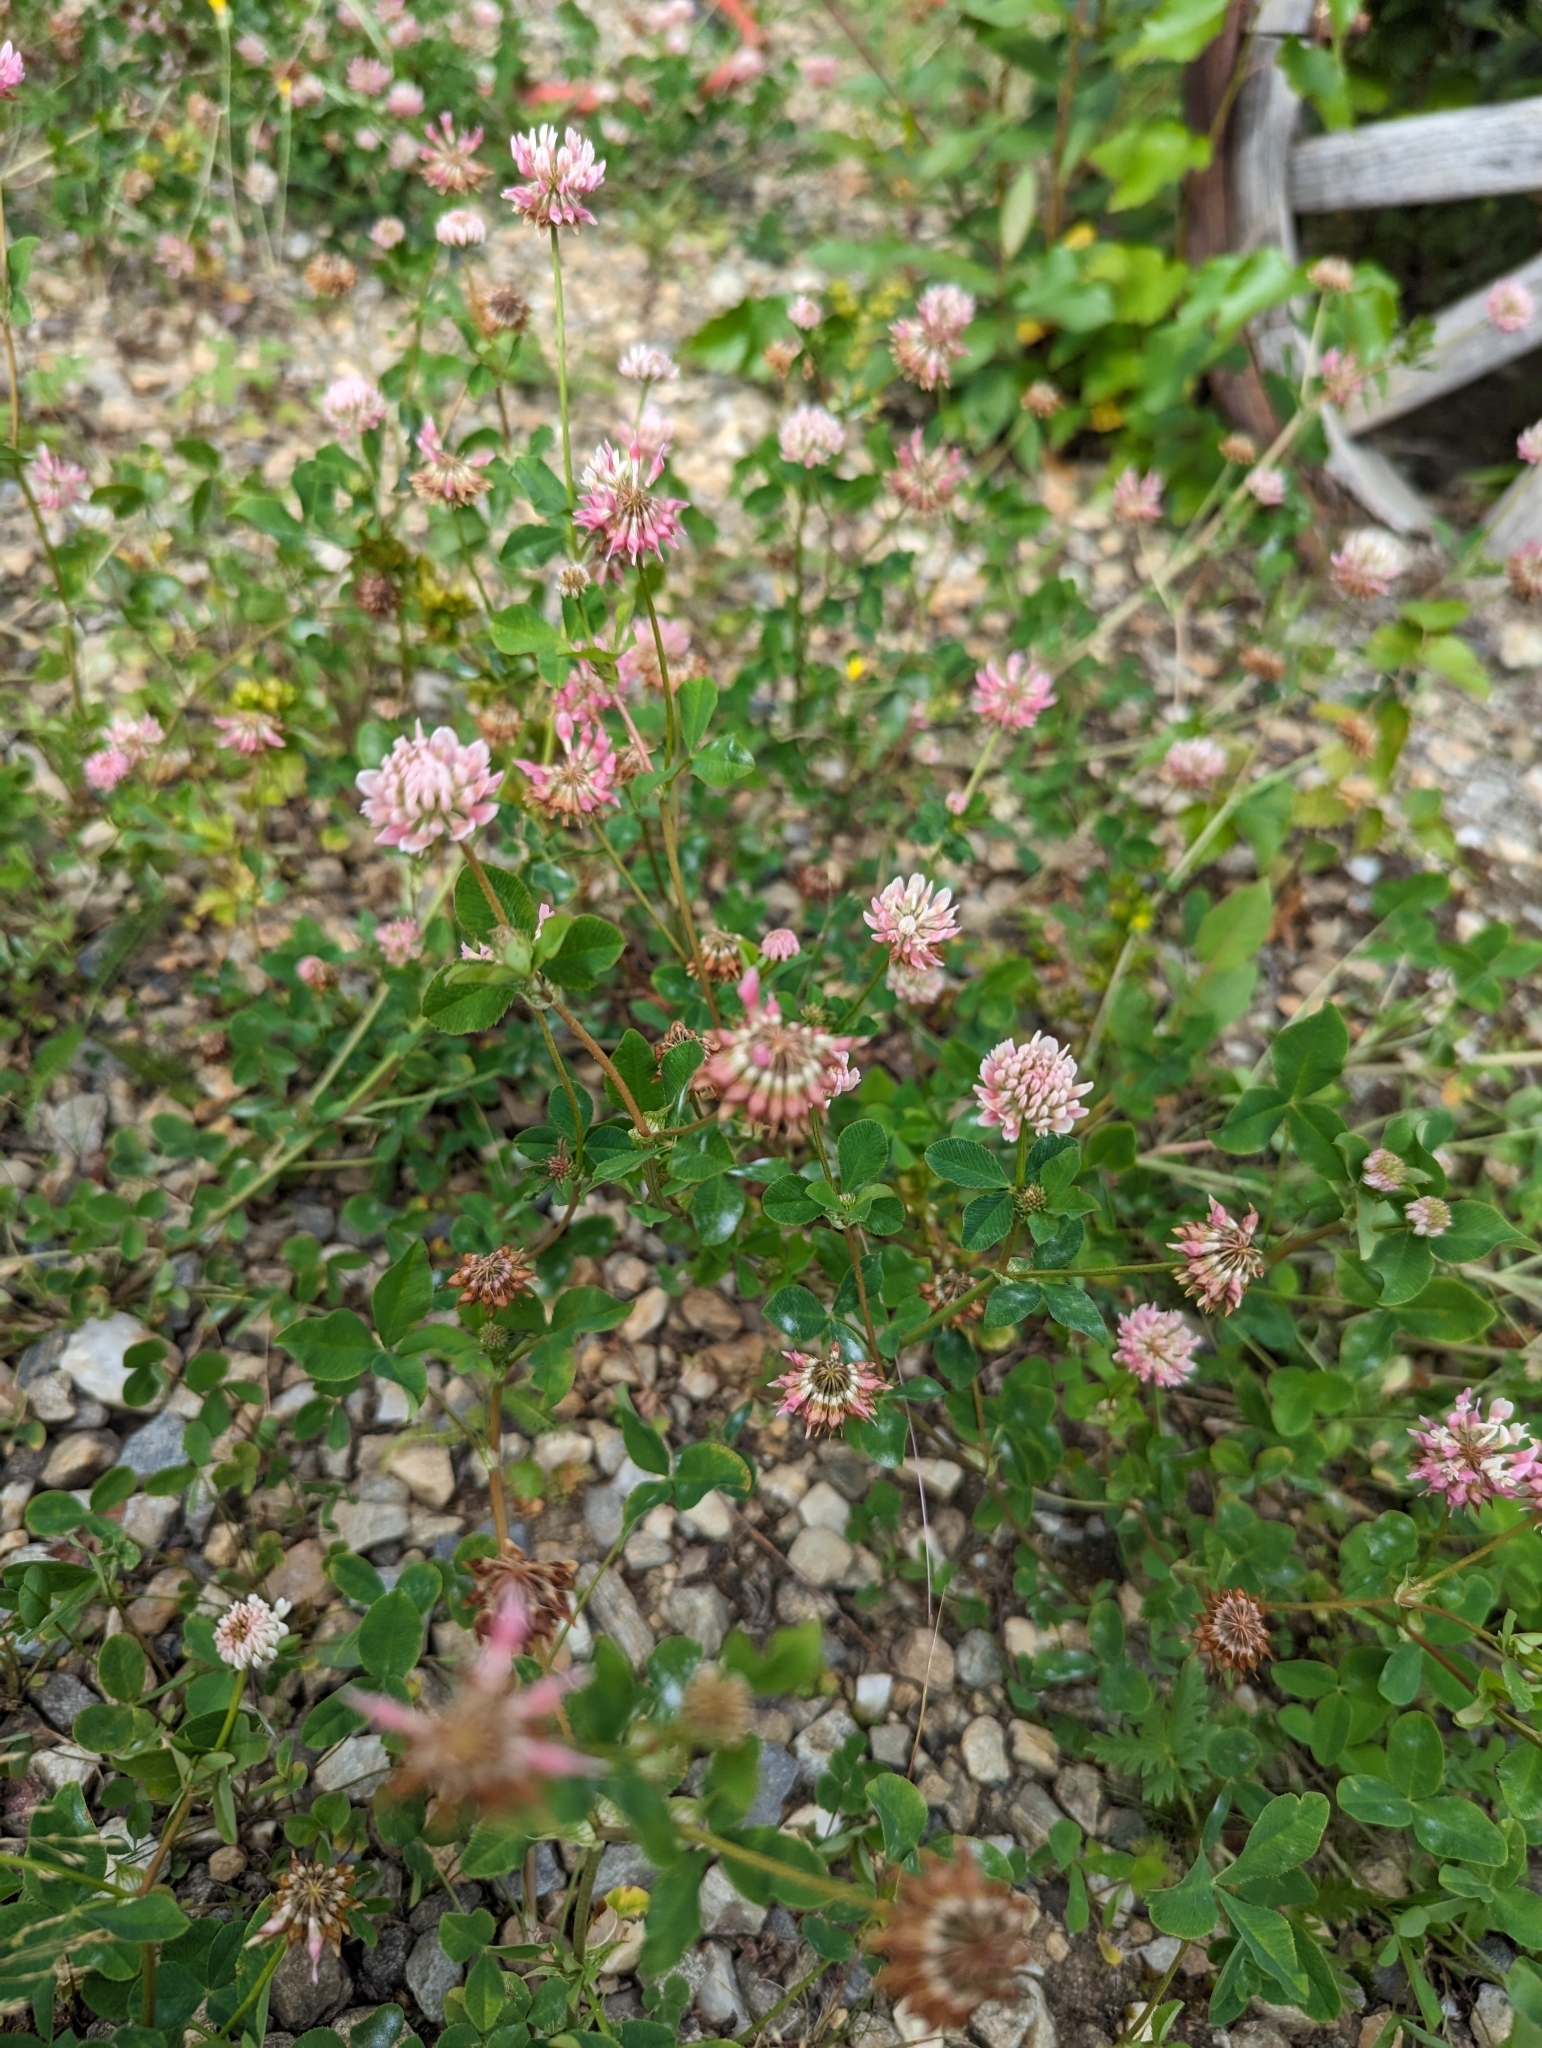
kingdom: Plantae
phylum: Tracheophyta
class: Magnoliopsida
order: Fabales
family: Fabaceae
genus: Trifolium
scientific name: Trifolium hybridum
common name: Alsike clover
